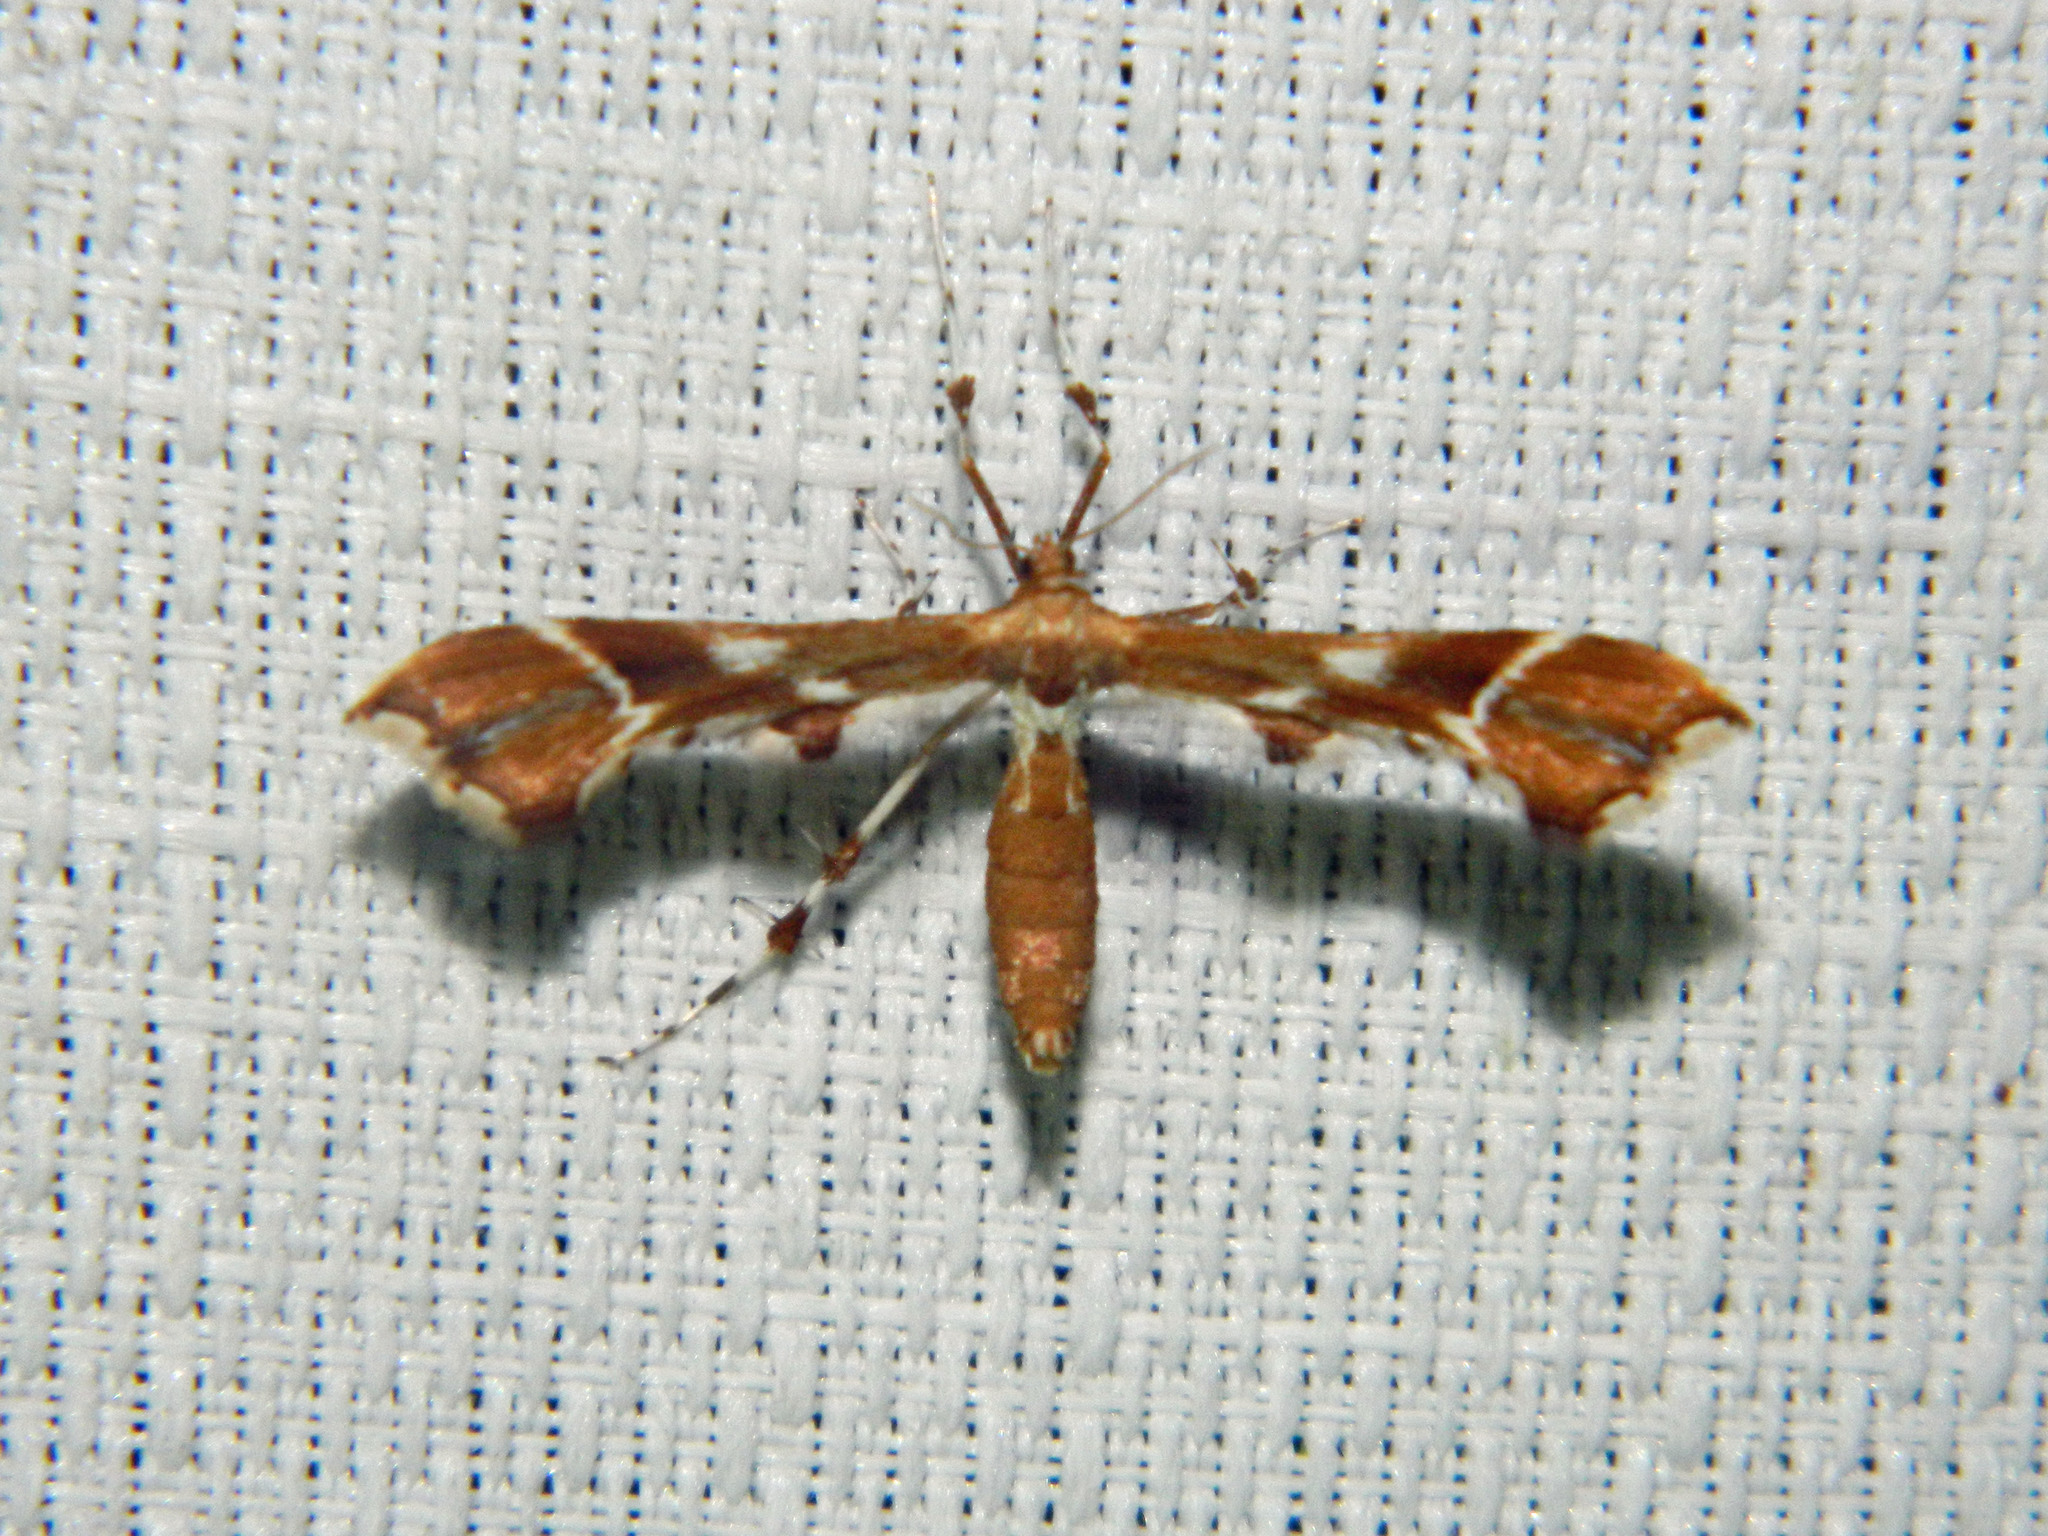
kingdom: Animalia
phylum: Arthropoda
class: Insecta
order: Lepidoptera
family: Pterophoridae
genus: Cnaemidophorus
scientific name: Cnaemidophorus rhododactyla
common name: Rose plume
